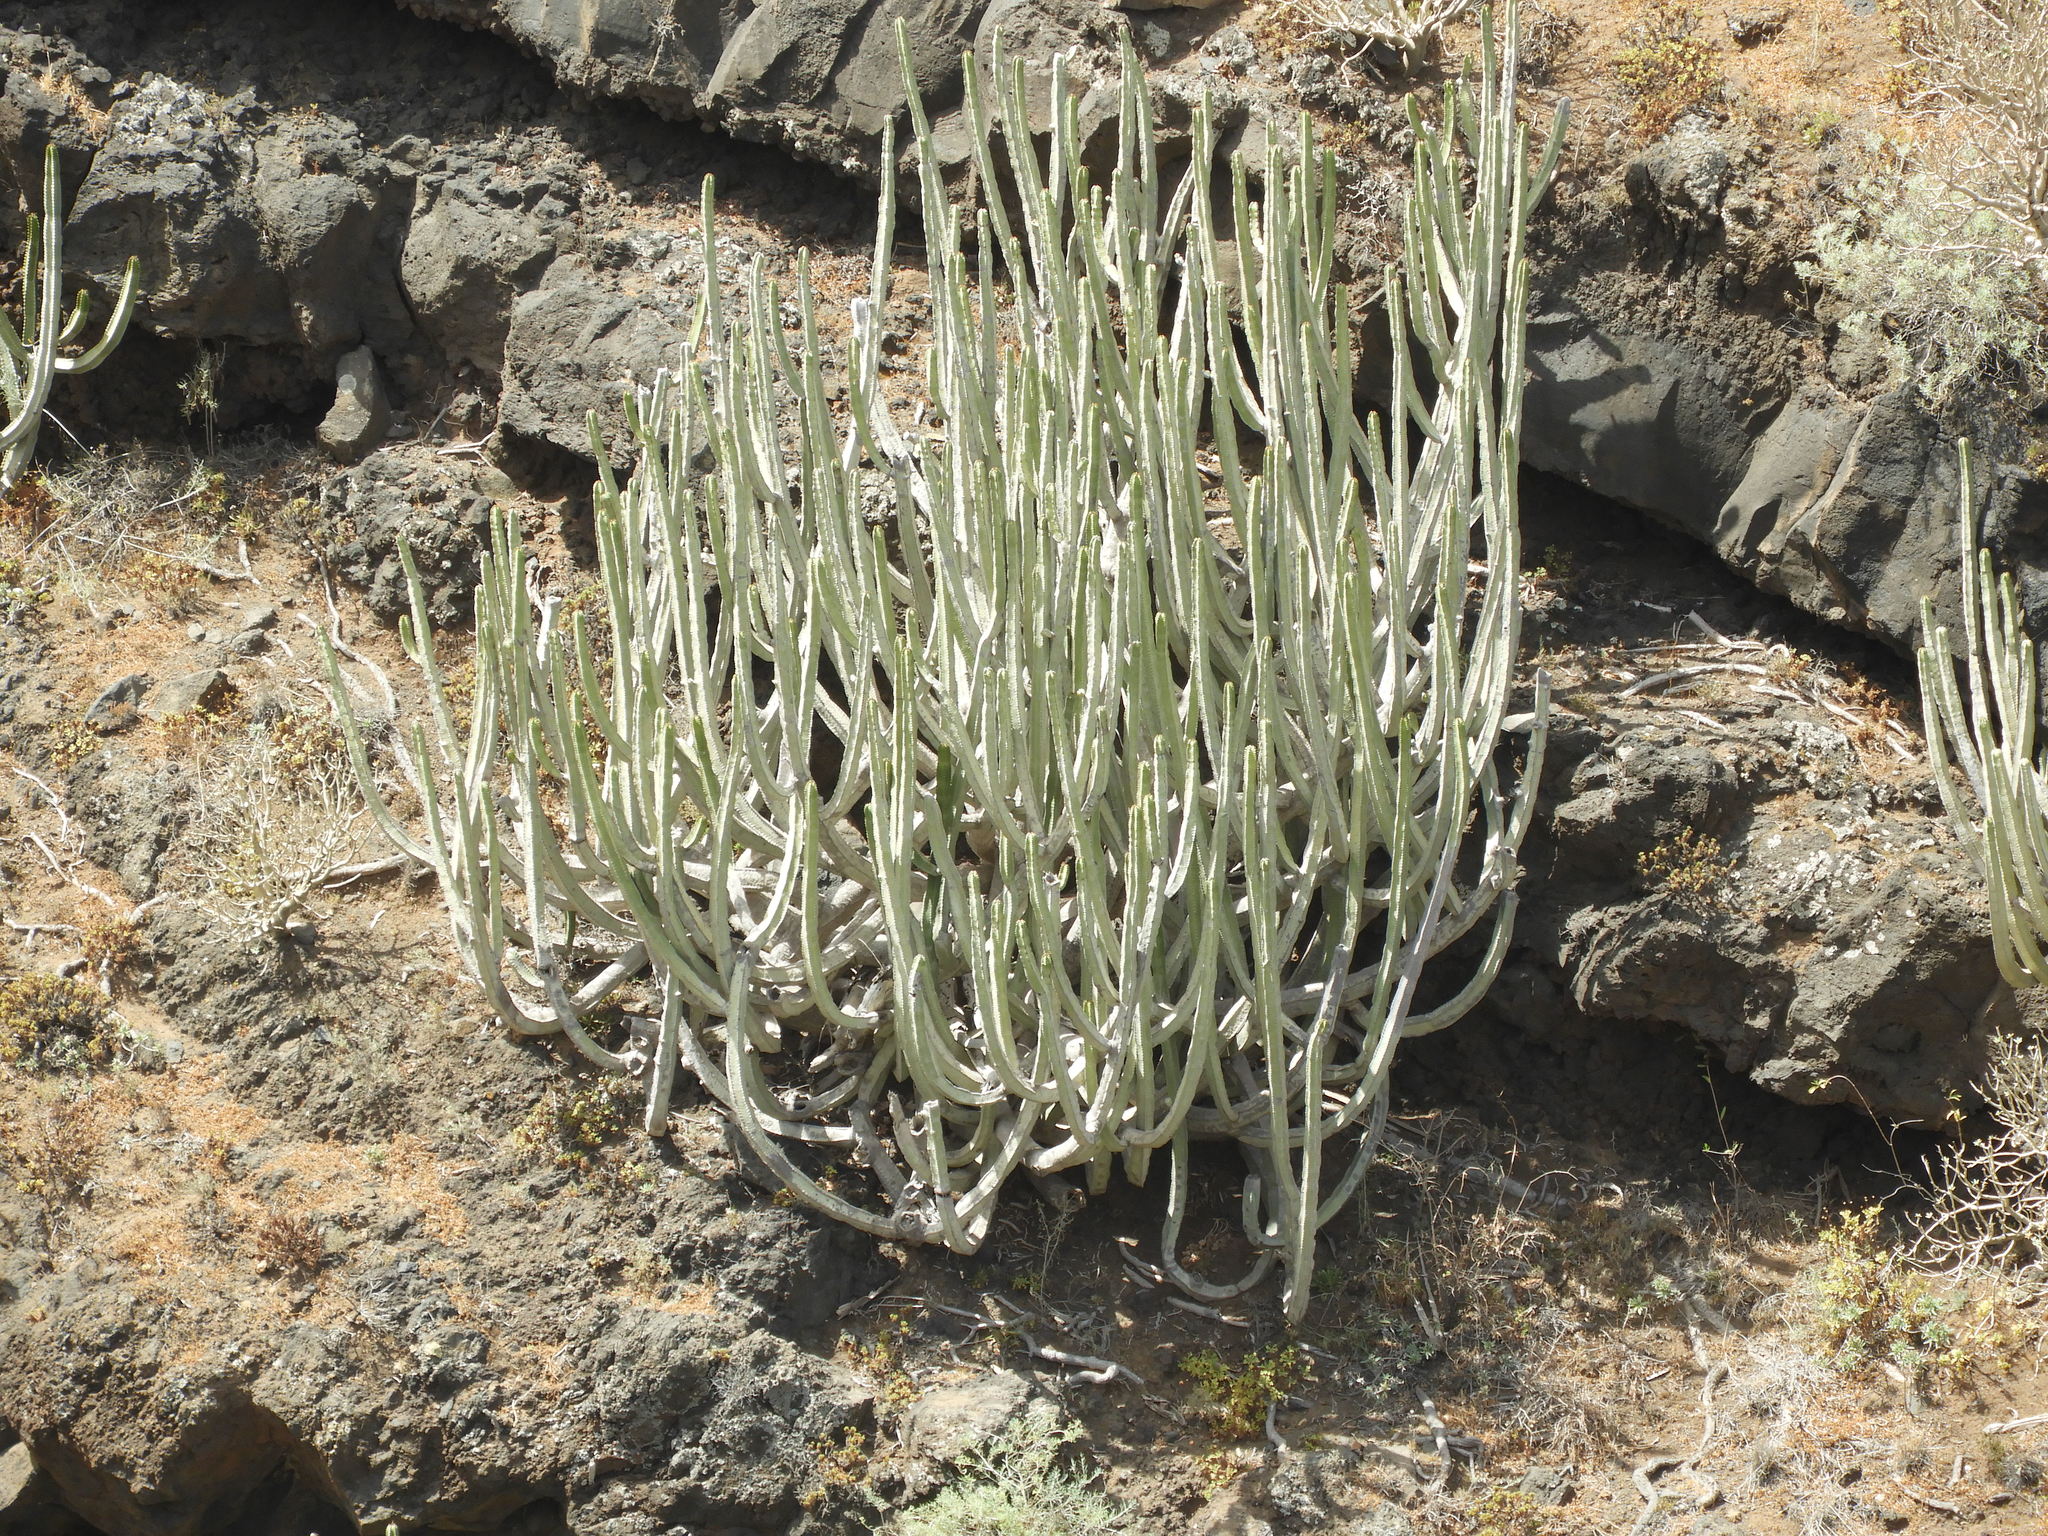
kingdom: Plantae
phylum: Tracheophyta
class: Magnoliopsida
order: Malpighiales
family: Euphorbiaceae
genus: Euphorbia
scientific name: Euphorbia canariensis
